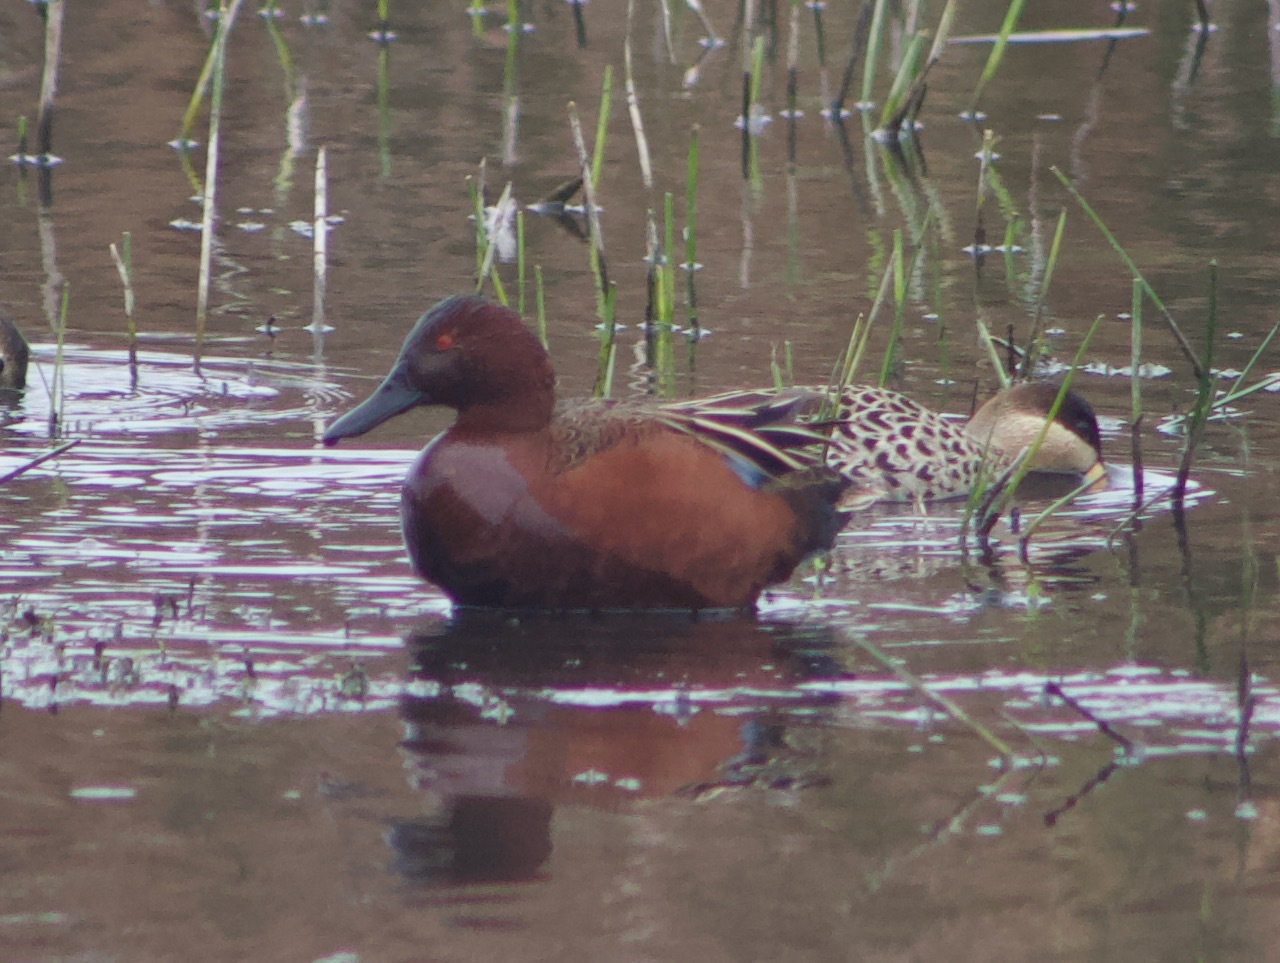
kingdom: Animalia
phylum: Chordata
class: Aves
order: Anseriformes
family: Anatidae
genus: Spatula
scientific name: Spatula cyanoptera
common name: Cinnamon teal
